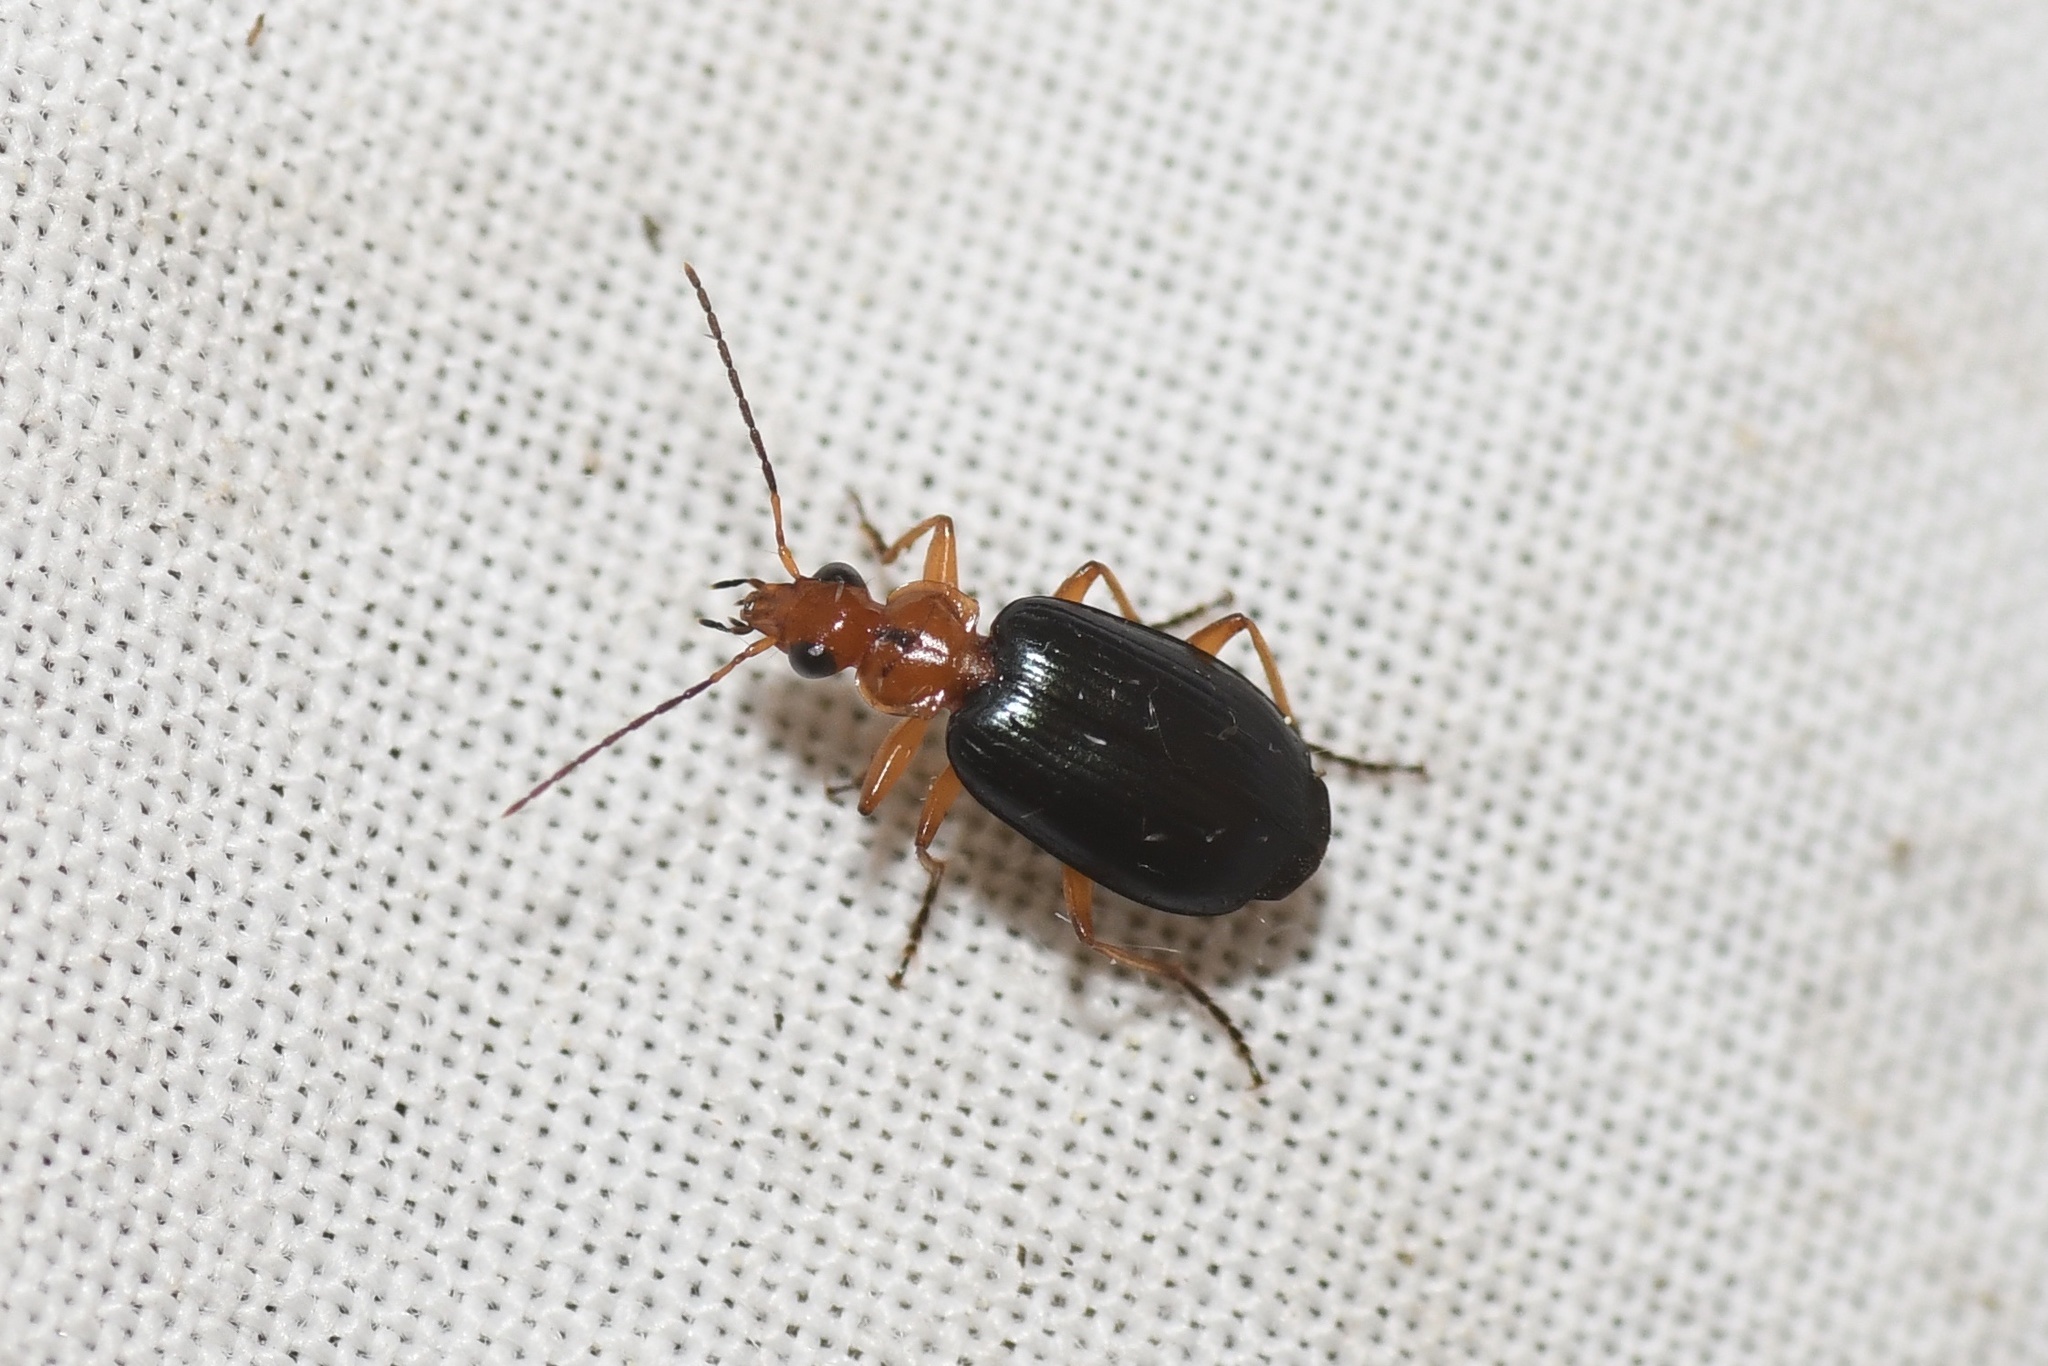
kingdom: Animalia
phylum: Arthropoda
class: Insecta
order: Coleoptera
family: Carabidae
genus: Lebia
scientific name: Lebia atriventris
